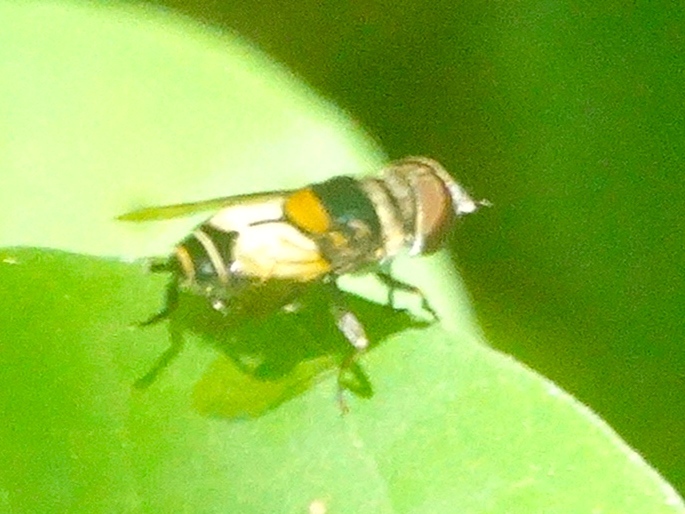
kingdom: Animalia
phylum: Arthropoda
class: Insecta
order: Diptera
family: Syrphidae
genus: Palpada
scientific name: Palpada albifrons
